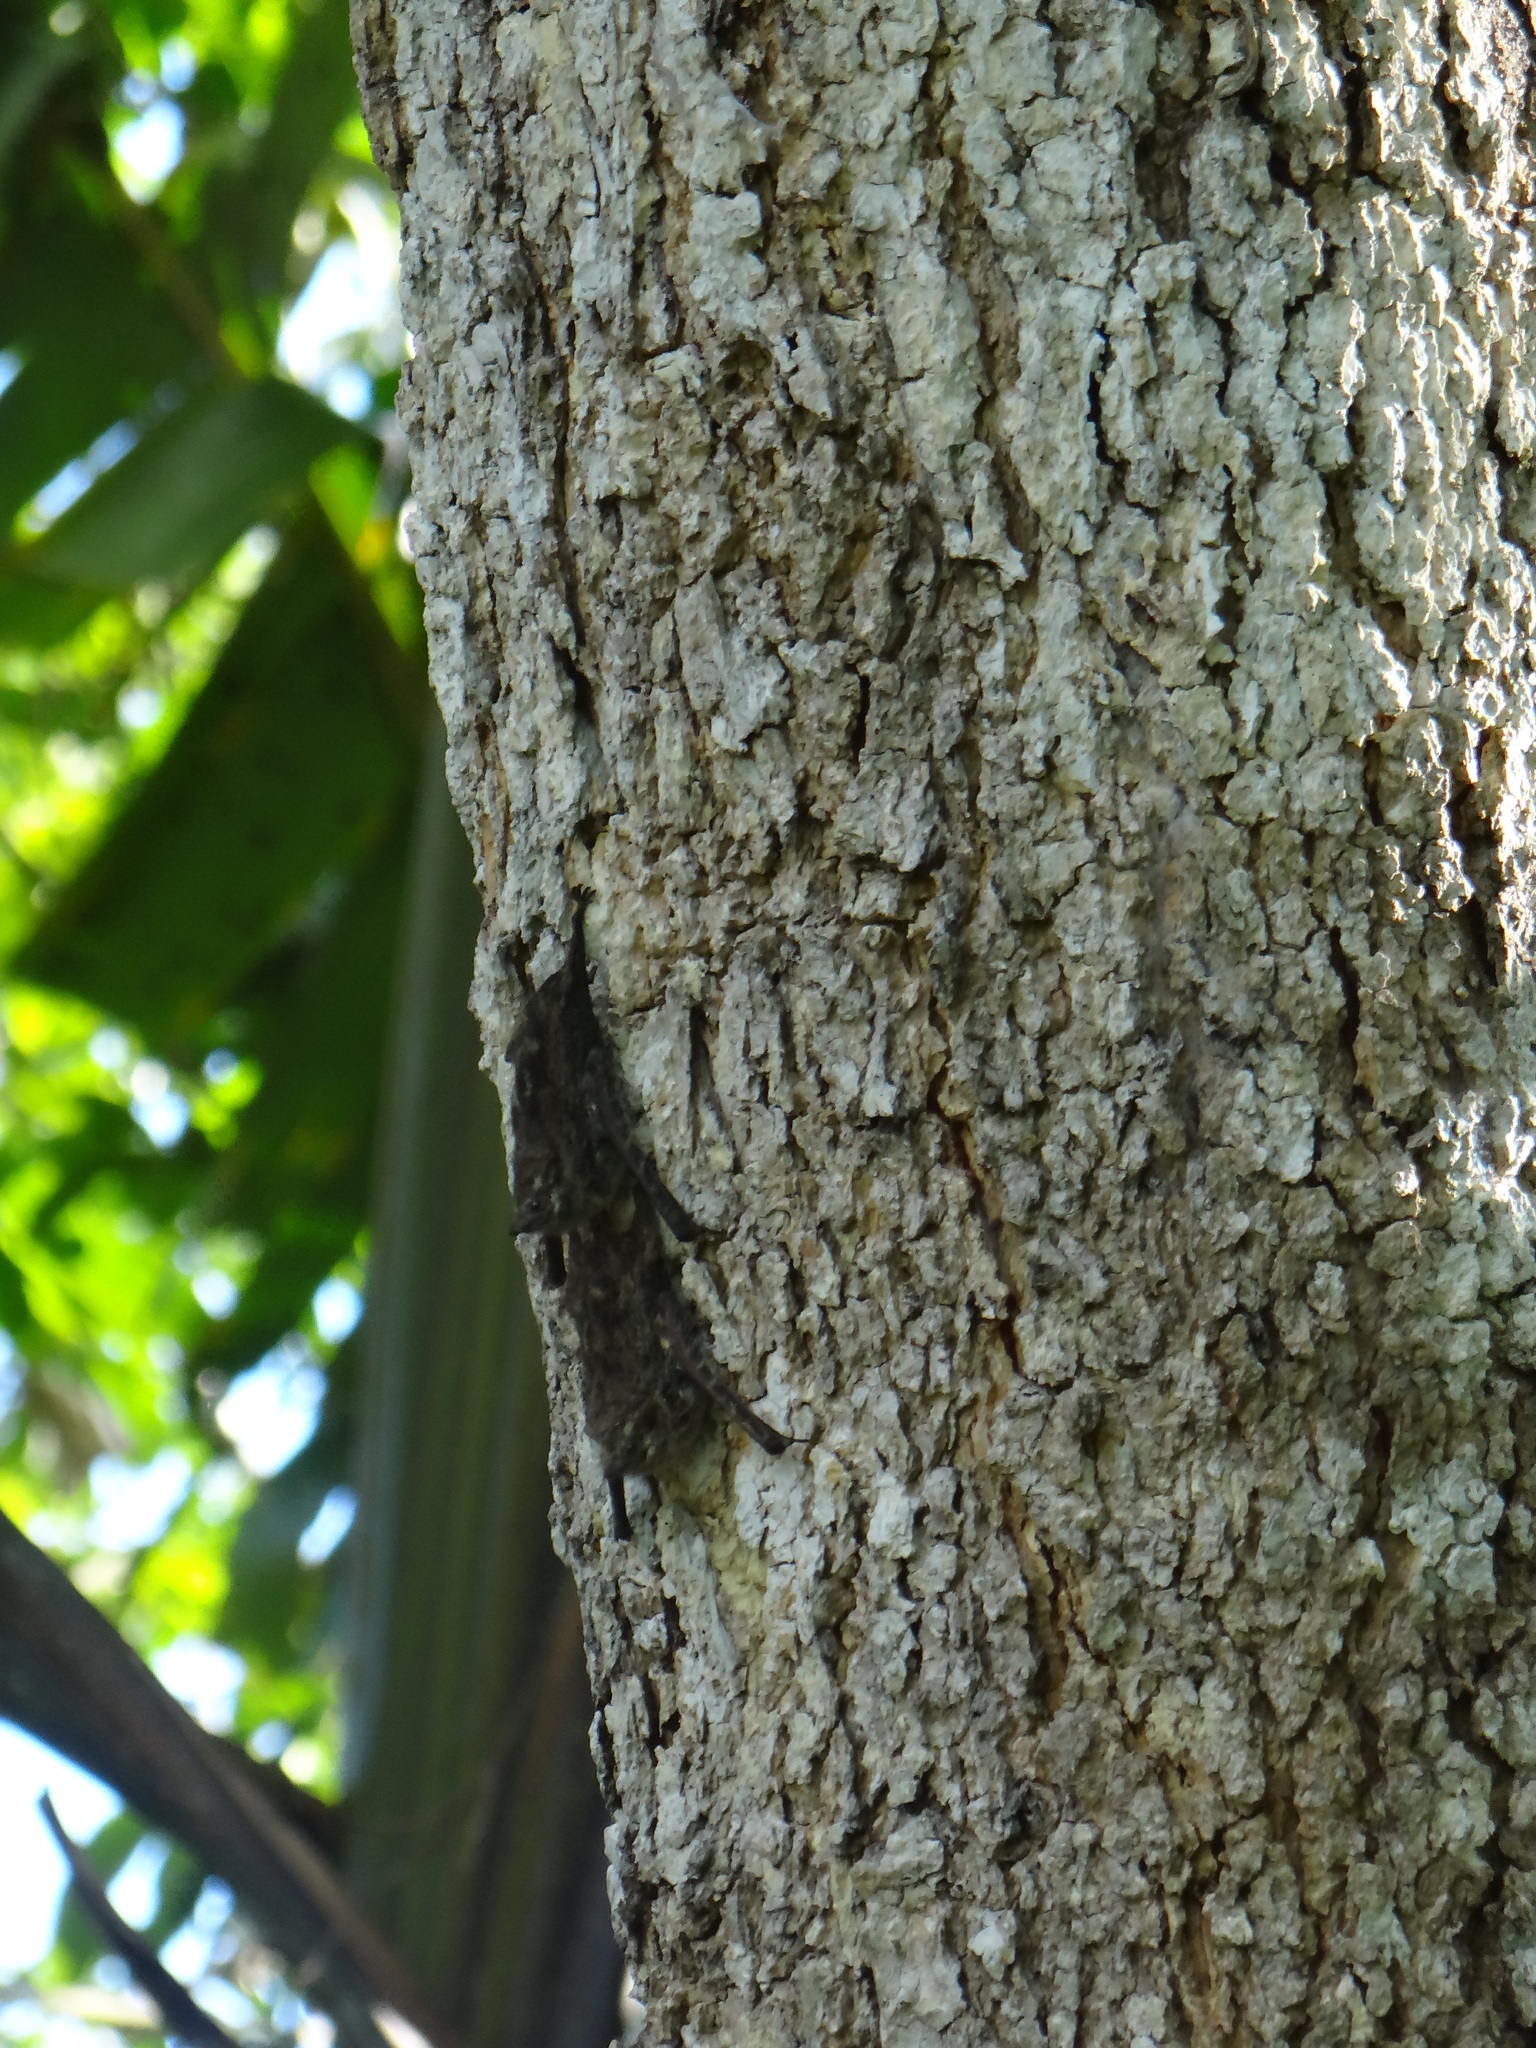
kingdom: Animalia
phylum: Chordata
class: Mammalia
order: Chiroptera
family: Emballonuridae
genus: Rhynchonycteris
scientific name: Rhynchonycteris naso
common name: Proboscis bat
